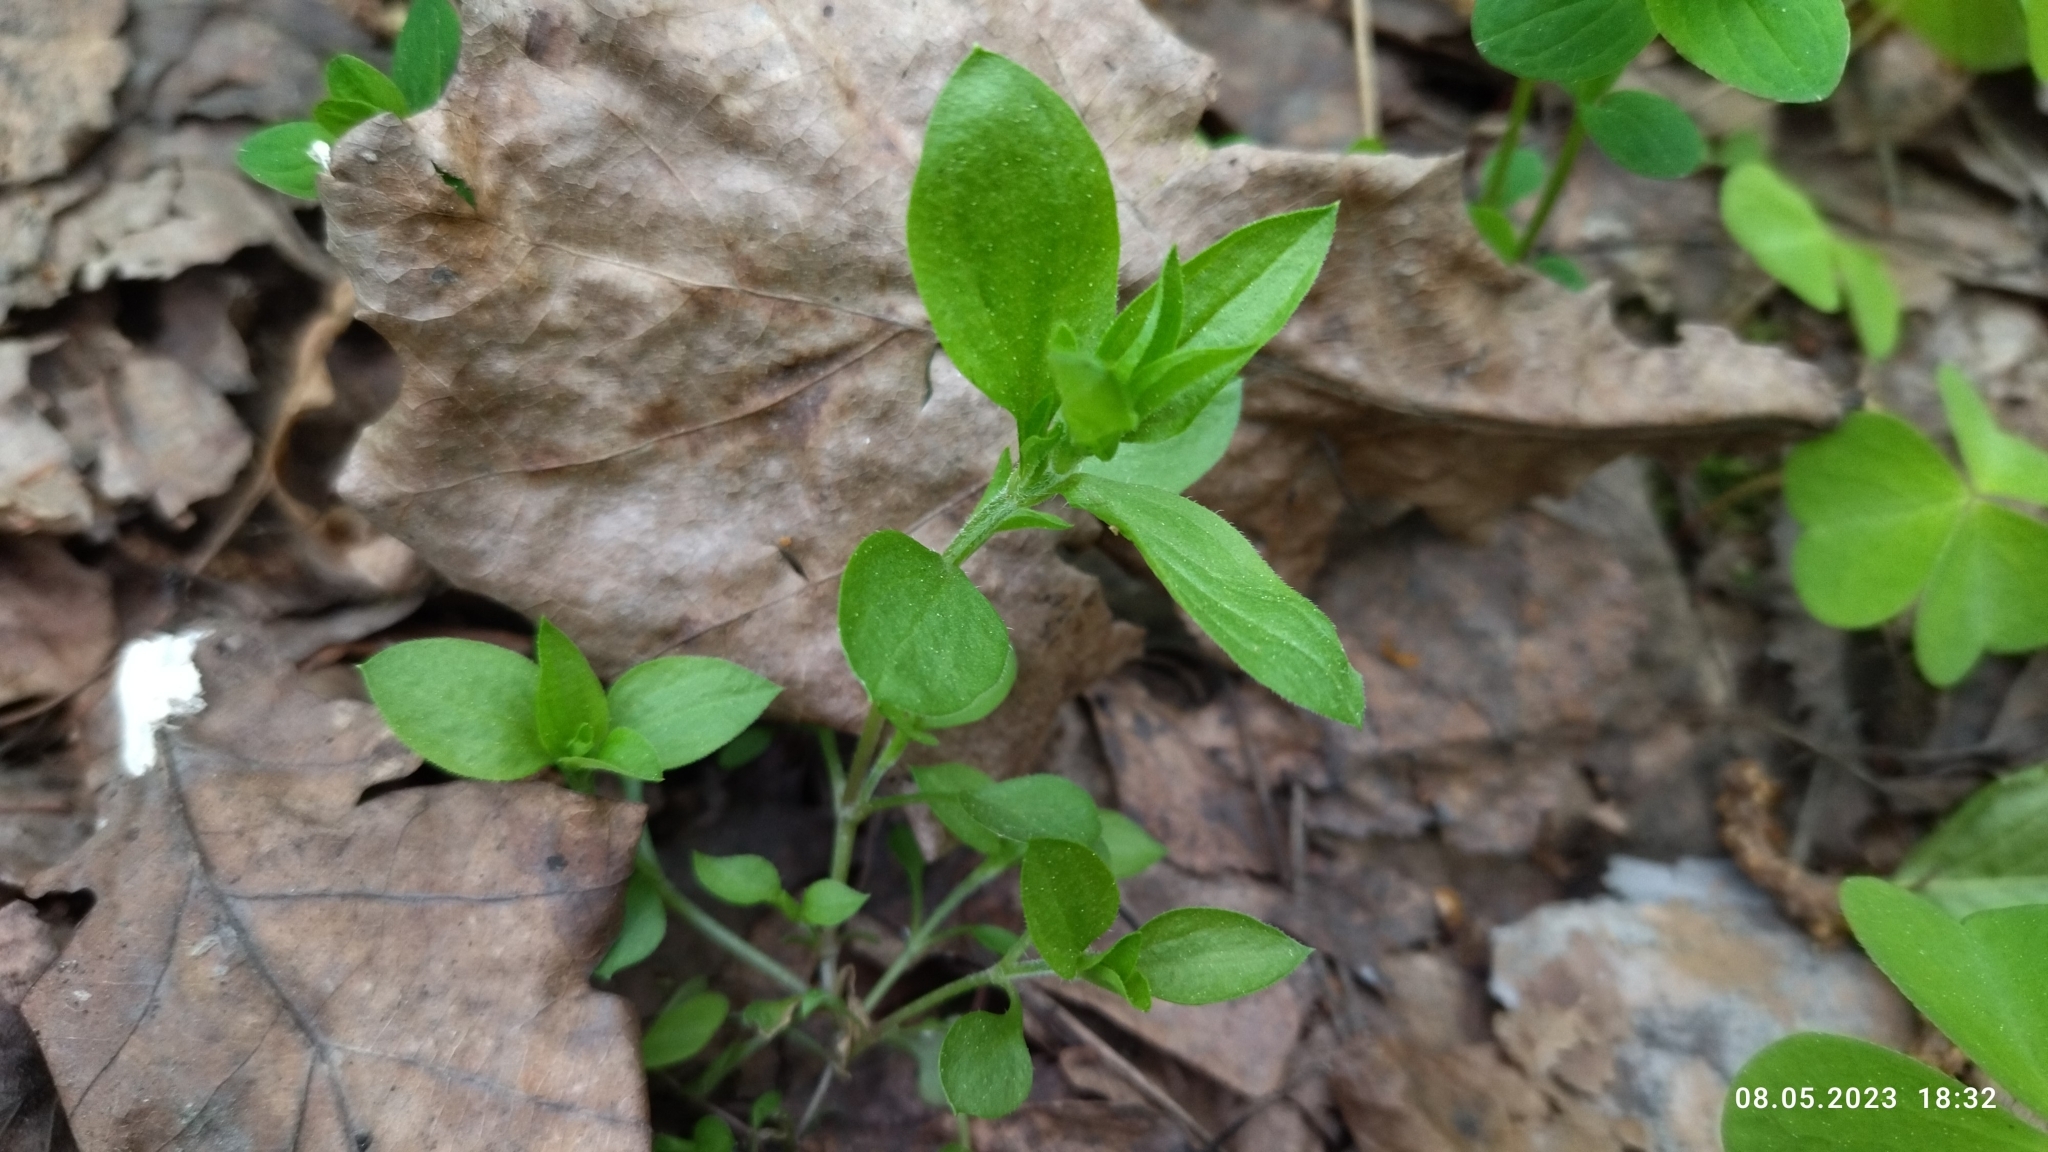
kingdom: Plantae
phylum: Tracheophyta
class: Magnoliopsida
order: Caryophyllales
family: Caryophyllaceae
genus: Moehringia
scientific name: Moehringia trinervia
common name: Three-nerved sandwort
